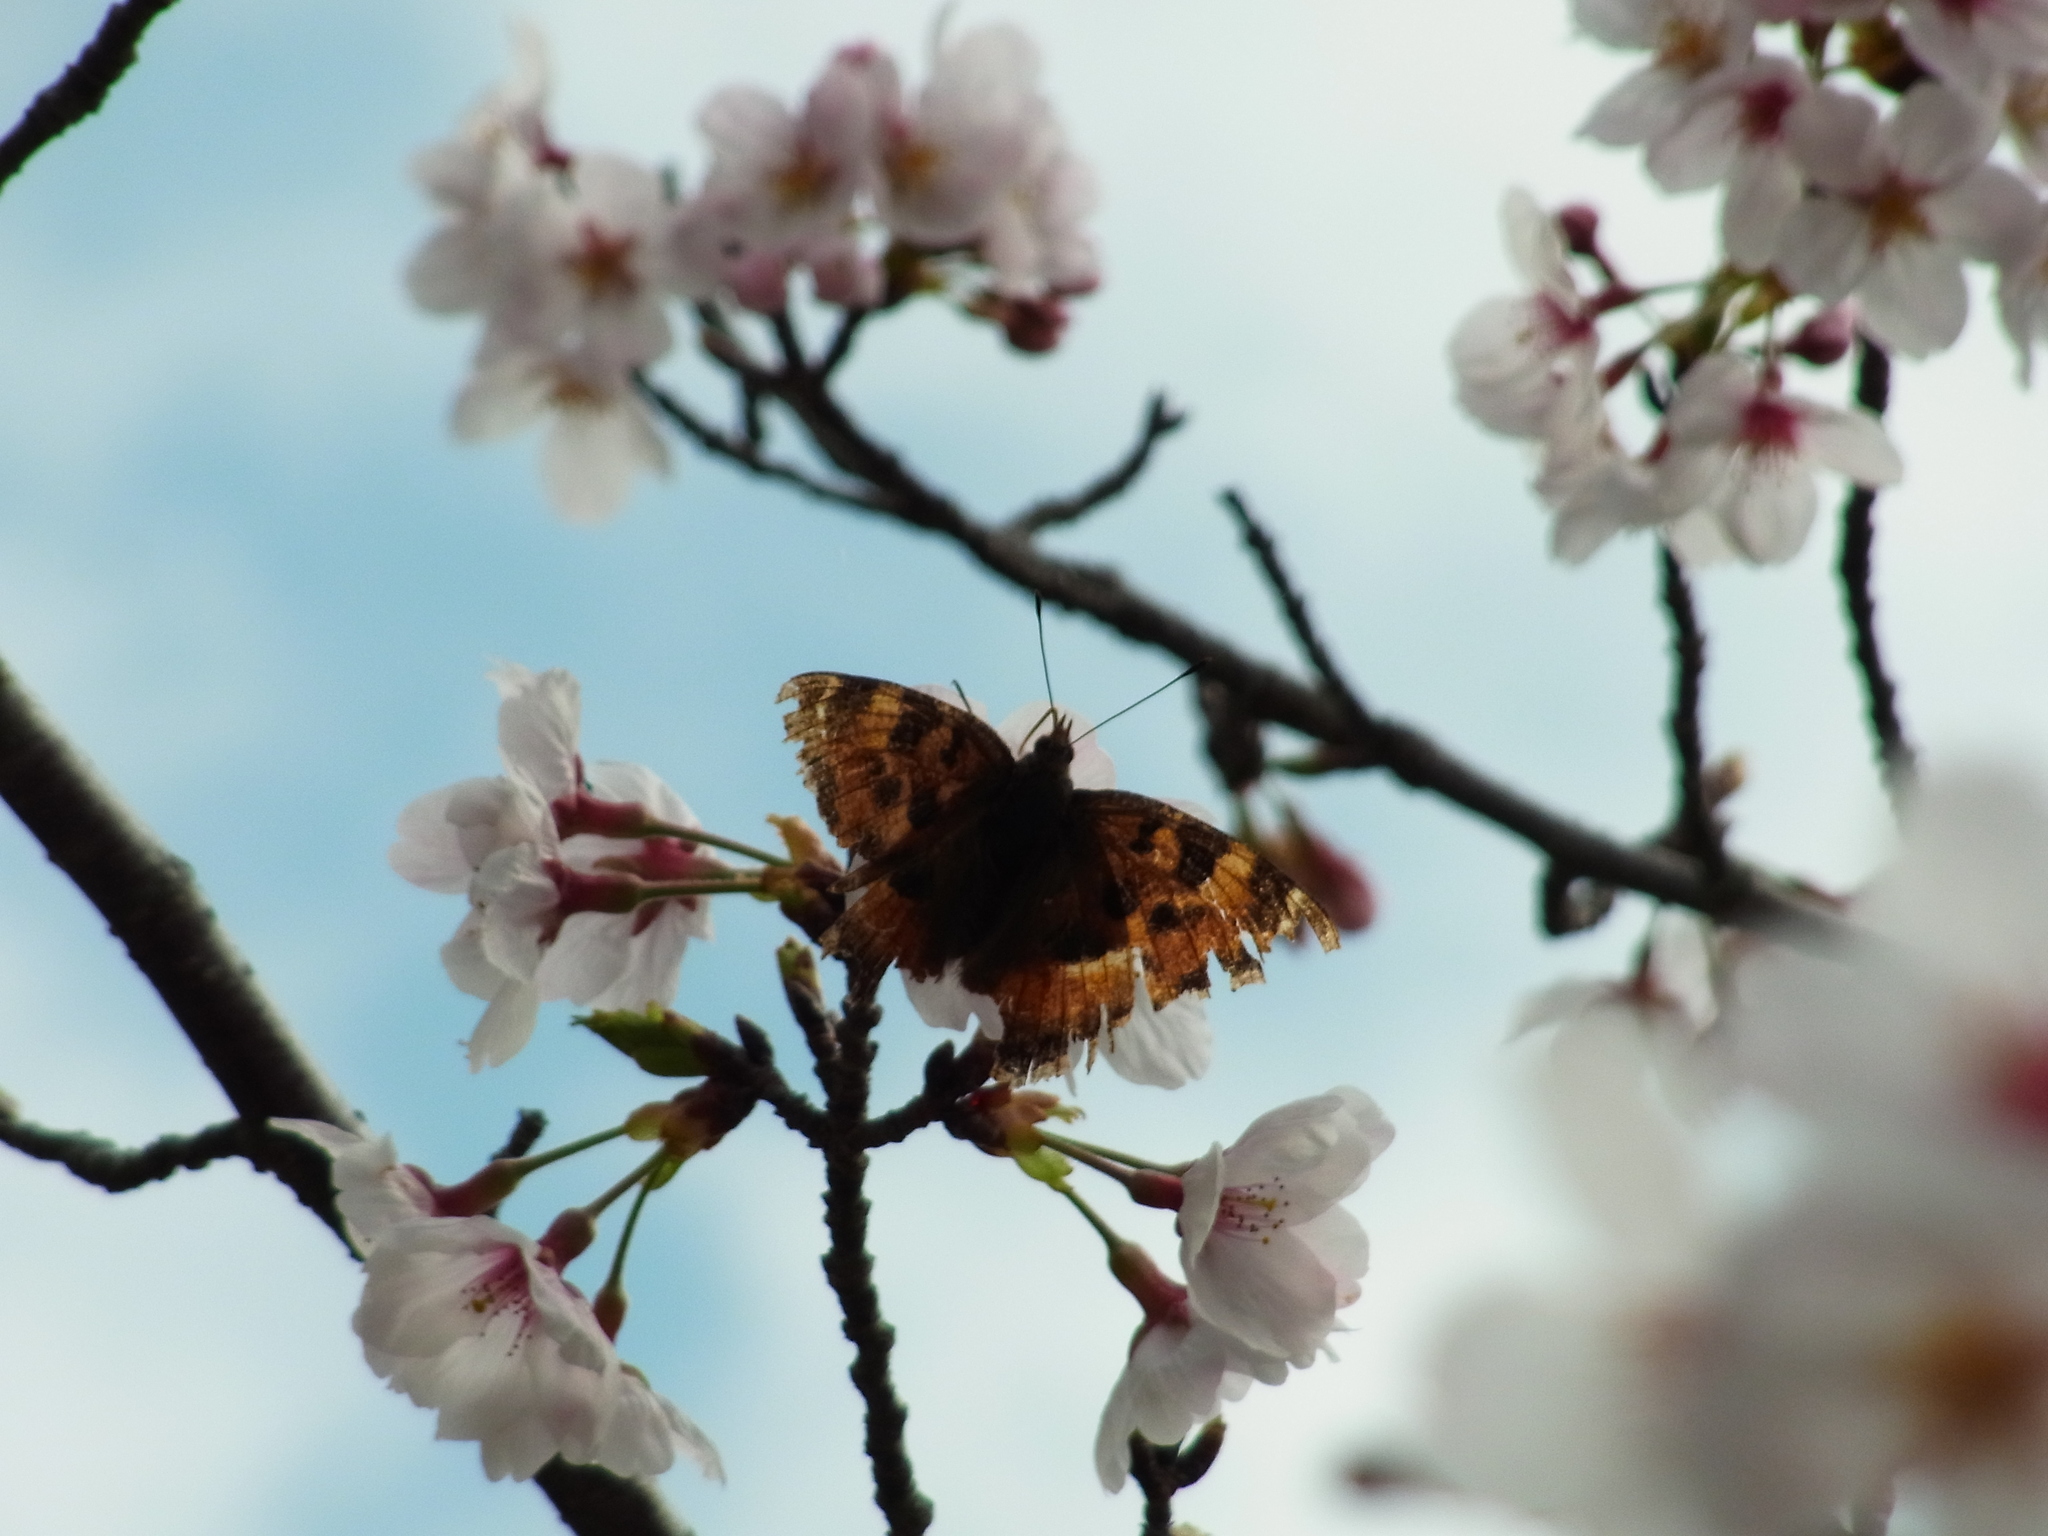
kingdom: Animalia
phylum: Arthropoda
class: Insecta
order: Lepidoptera
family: Nymphalidae
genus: Nymphalis
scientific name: Nymphalis xanthomelas
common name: Scarce tortoiseshell
